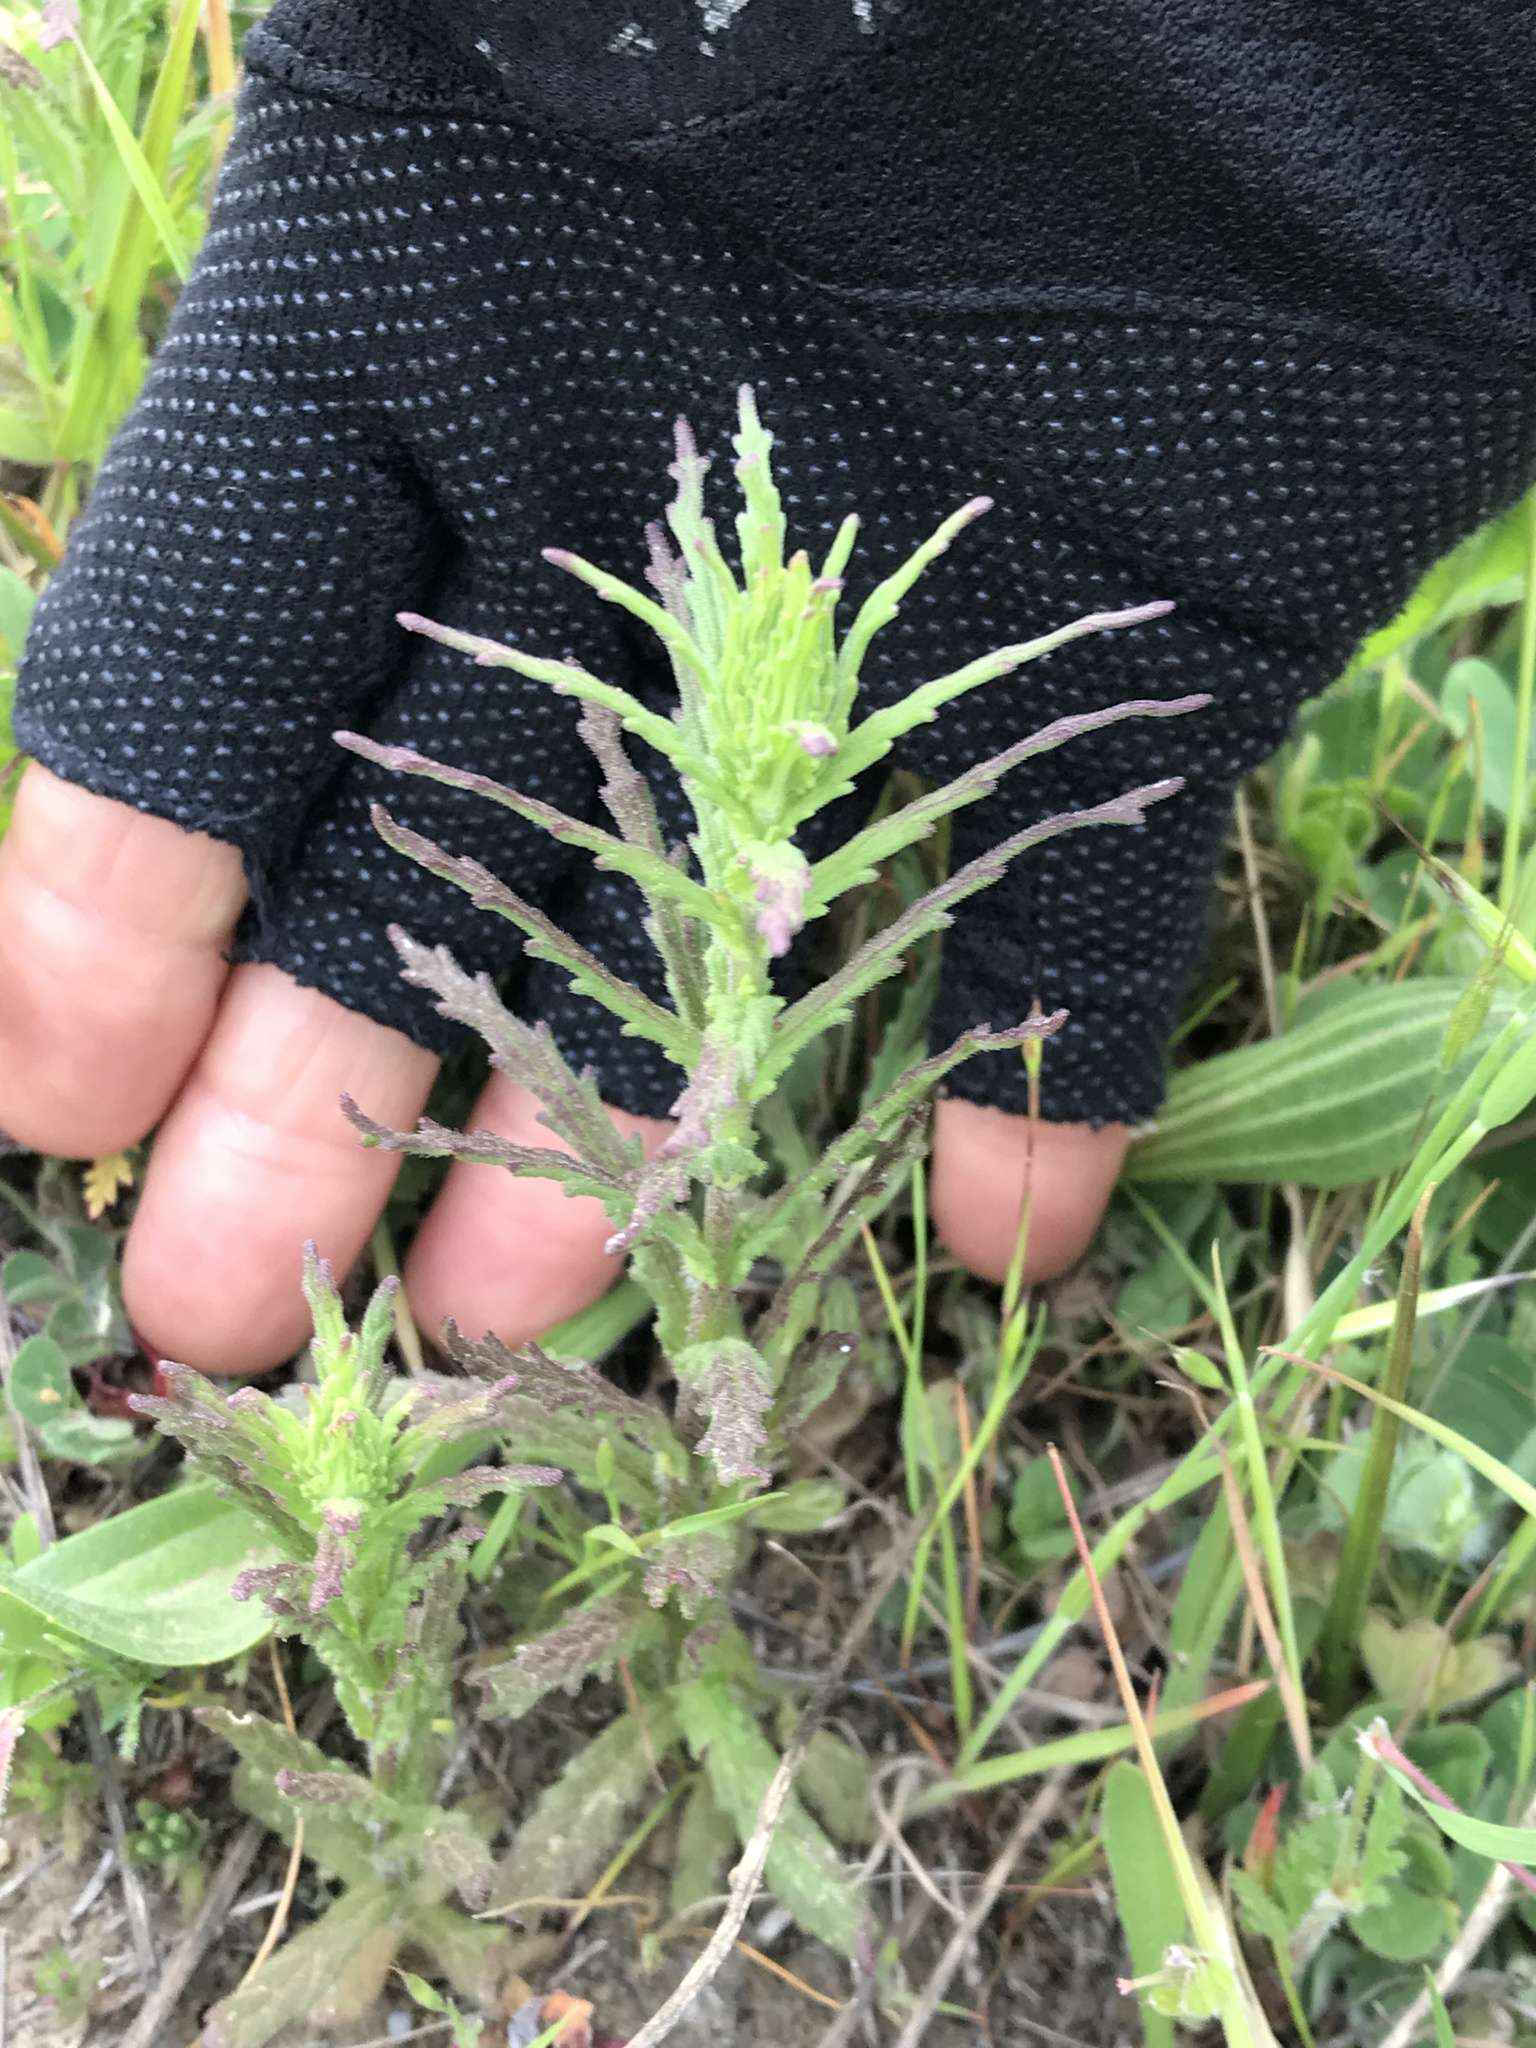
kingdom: Plantae
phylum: Tracheophyta
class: Magnoliopsida
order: Lamiales
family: Orobanchaceae
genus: Bellardia
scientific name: Bellardia trixago
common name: Mediterranean lineseed
